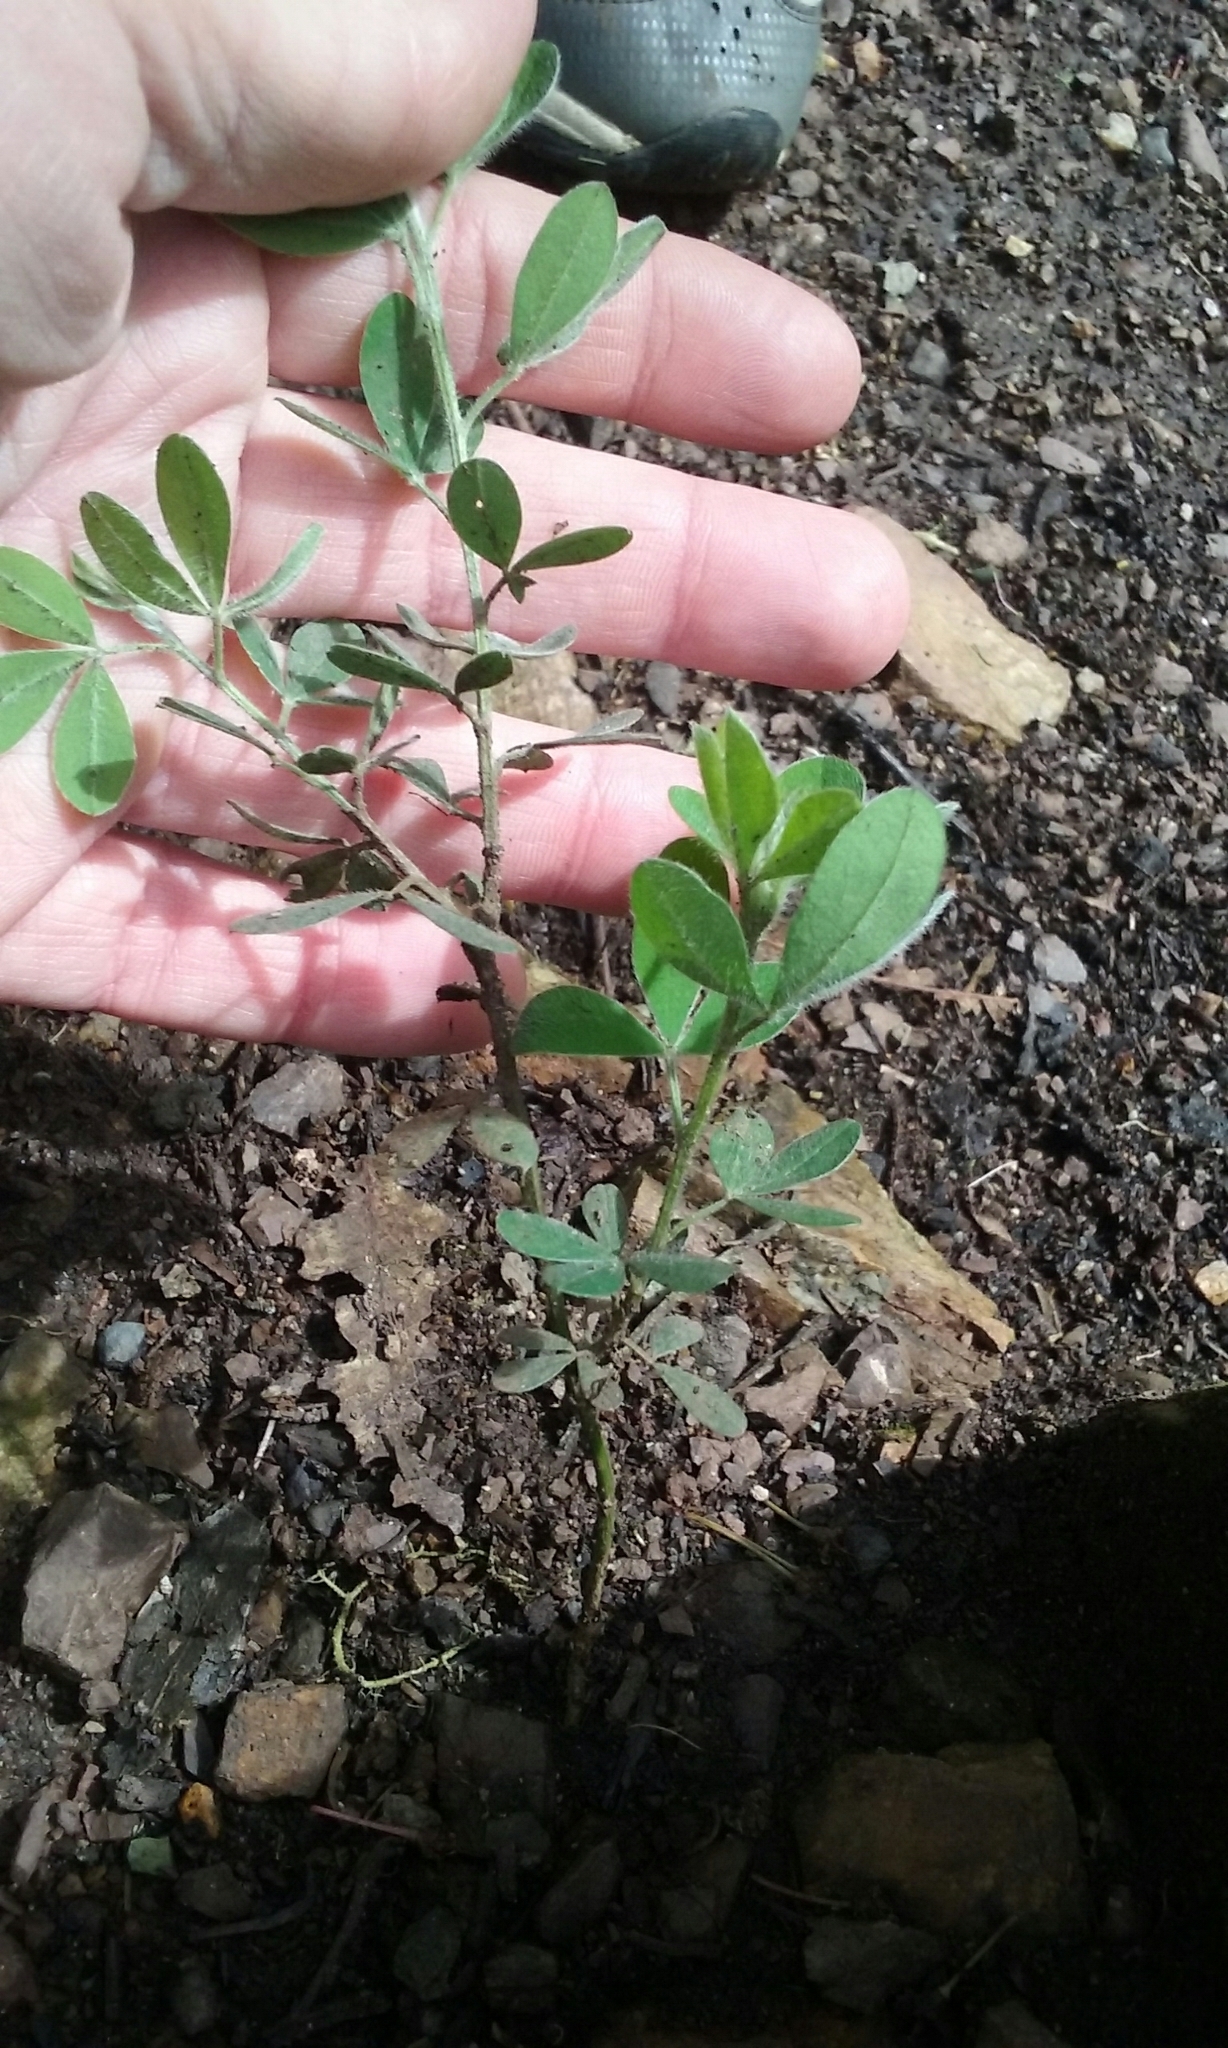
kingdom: Plantae
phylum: Tracheophyta
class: Magnoliopsida
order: Fabales
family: Fabaceae
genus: Genista
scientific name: Genista monspessulana
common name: Montpellier broom
